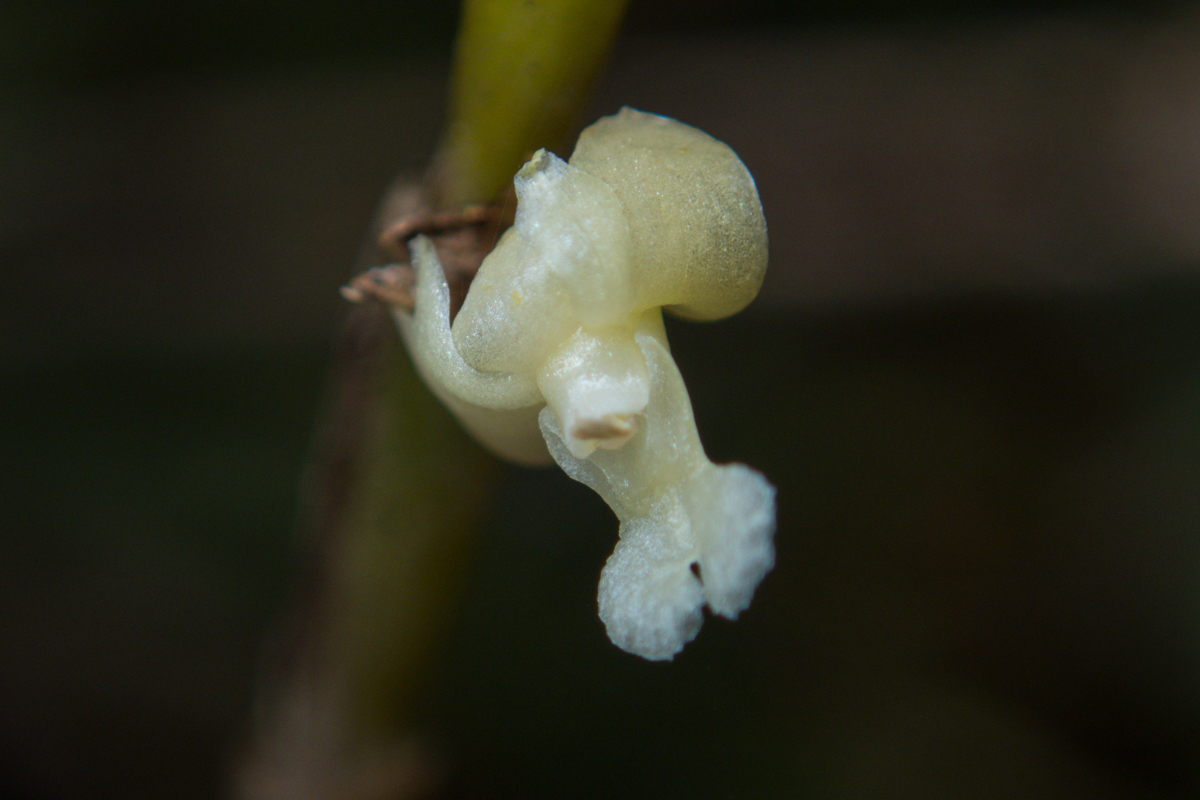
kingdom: Plantae
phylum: Tracheophyta
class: Liliopsida
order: Asparagales
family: Orchidaceae
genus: Dendrobium
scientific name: Dendrobium aloifolium
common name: Aloe-like dendrobium
